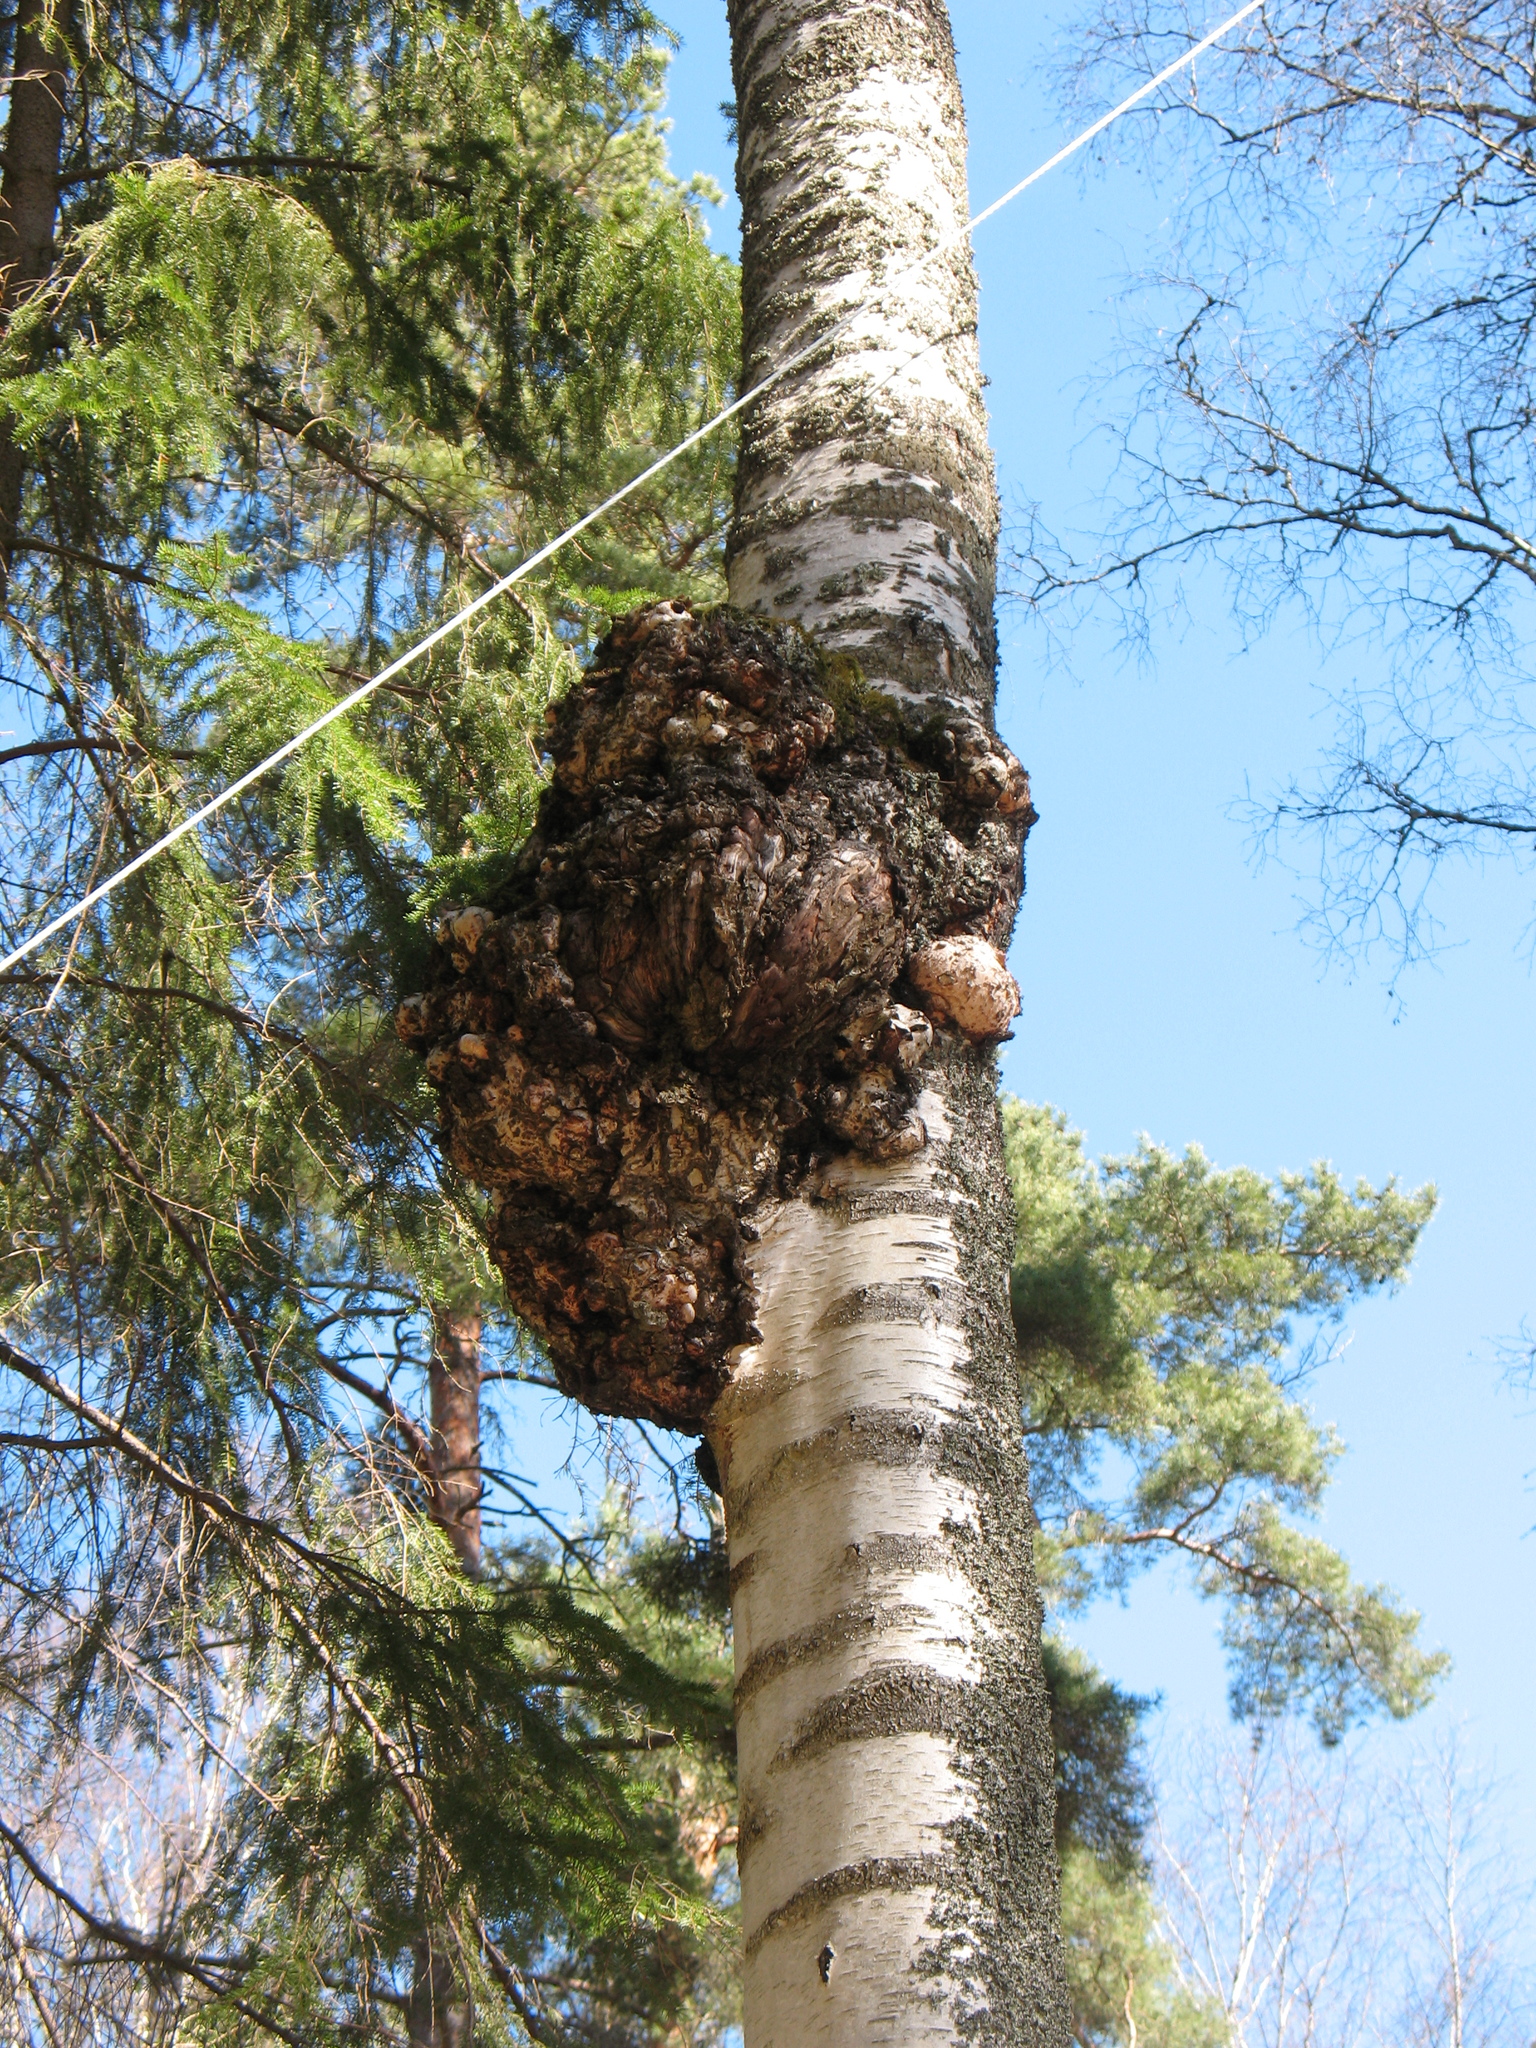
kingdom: Plantae
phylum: Tracheophyta
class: Magnoliopsida
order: Fagales
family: Betulaceae
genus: Betula
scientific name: Betula pendula
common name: Silver birch
